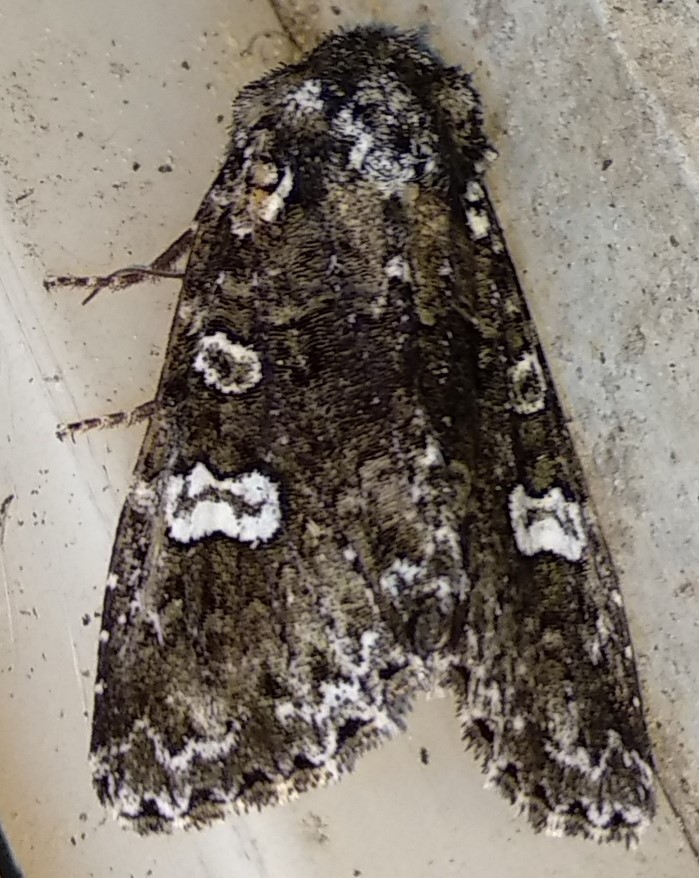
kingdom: Animalia
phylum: Arthropoda
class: Insecta
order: Lepidoptera
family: Noctuidae
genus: Melanchra
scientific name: Melanchra adjuncta
